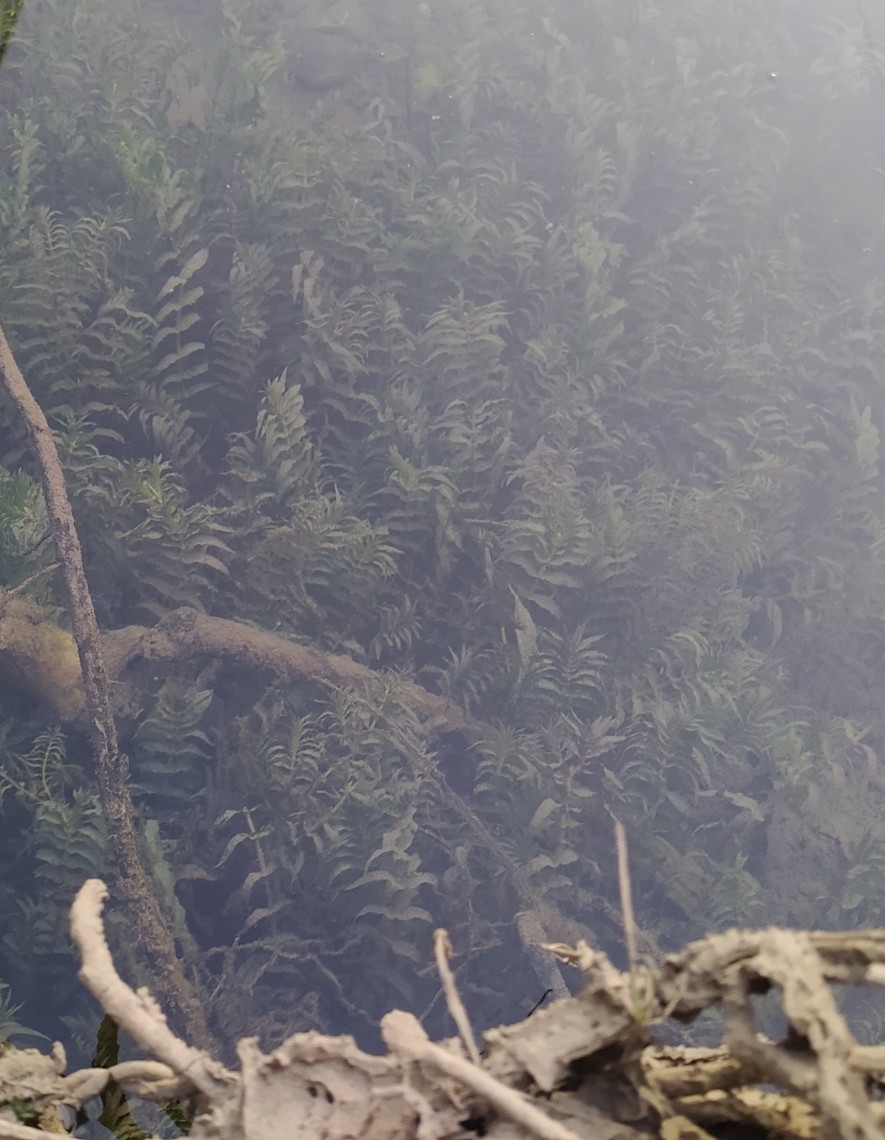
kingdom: Plantae
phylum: Tracheophyta
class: Liliopsida
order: Alismatales
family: Potamogetonaceae
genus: Groenlandia
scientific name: Groenlandia densa
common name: Opposite-leaved pondweed
